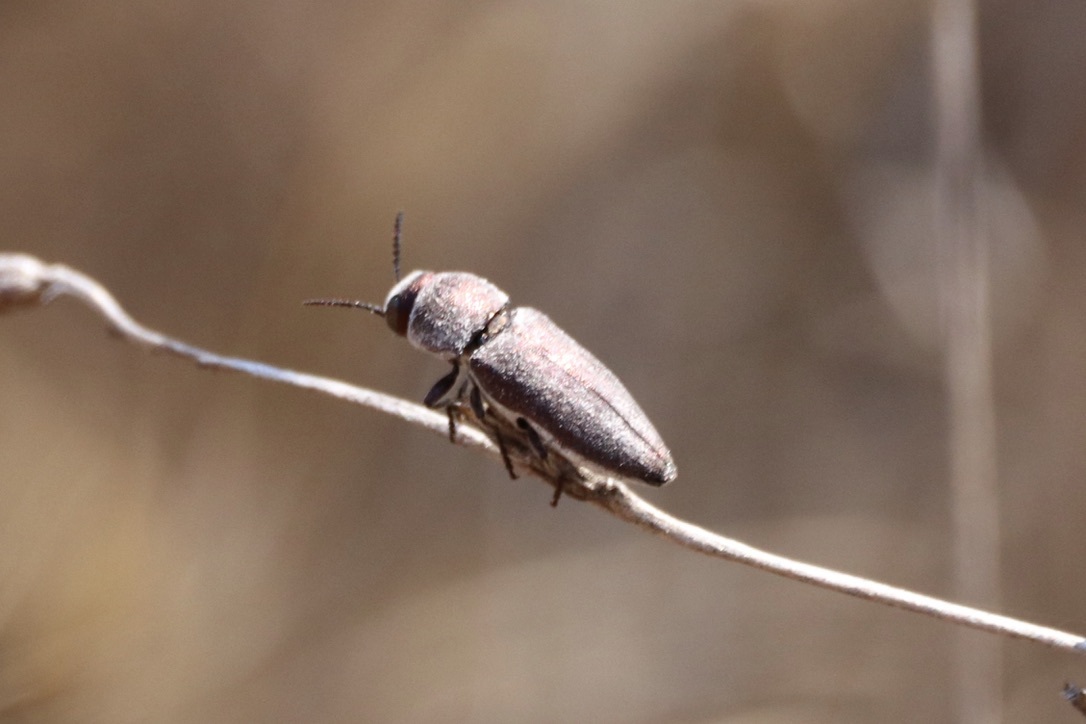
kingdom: Animalia
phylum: Arthropoda
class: Insecta
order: Coleoptera
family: Buprestidae
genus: Nanularia
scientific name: Nanularia brunneata
